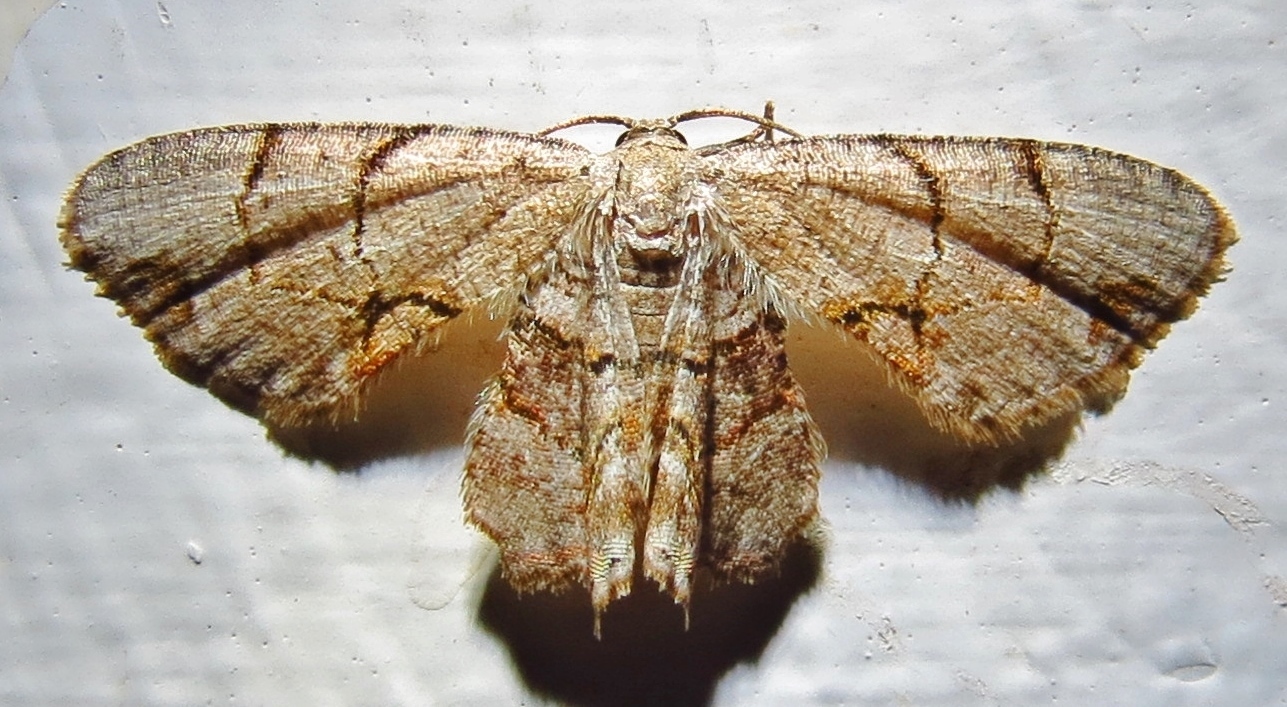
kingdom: Animalia
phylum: Arthropoda
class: Insecta
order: Lepidoptera
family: Uraniidae
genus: Epiplema
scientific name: Epiplema Callizzia amorata
